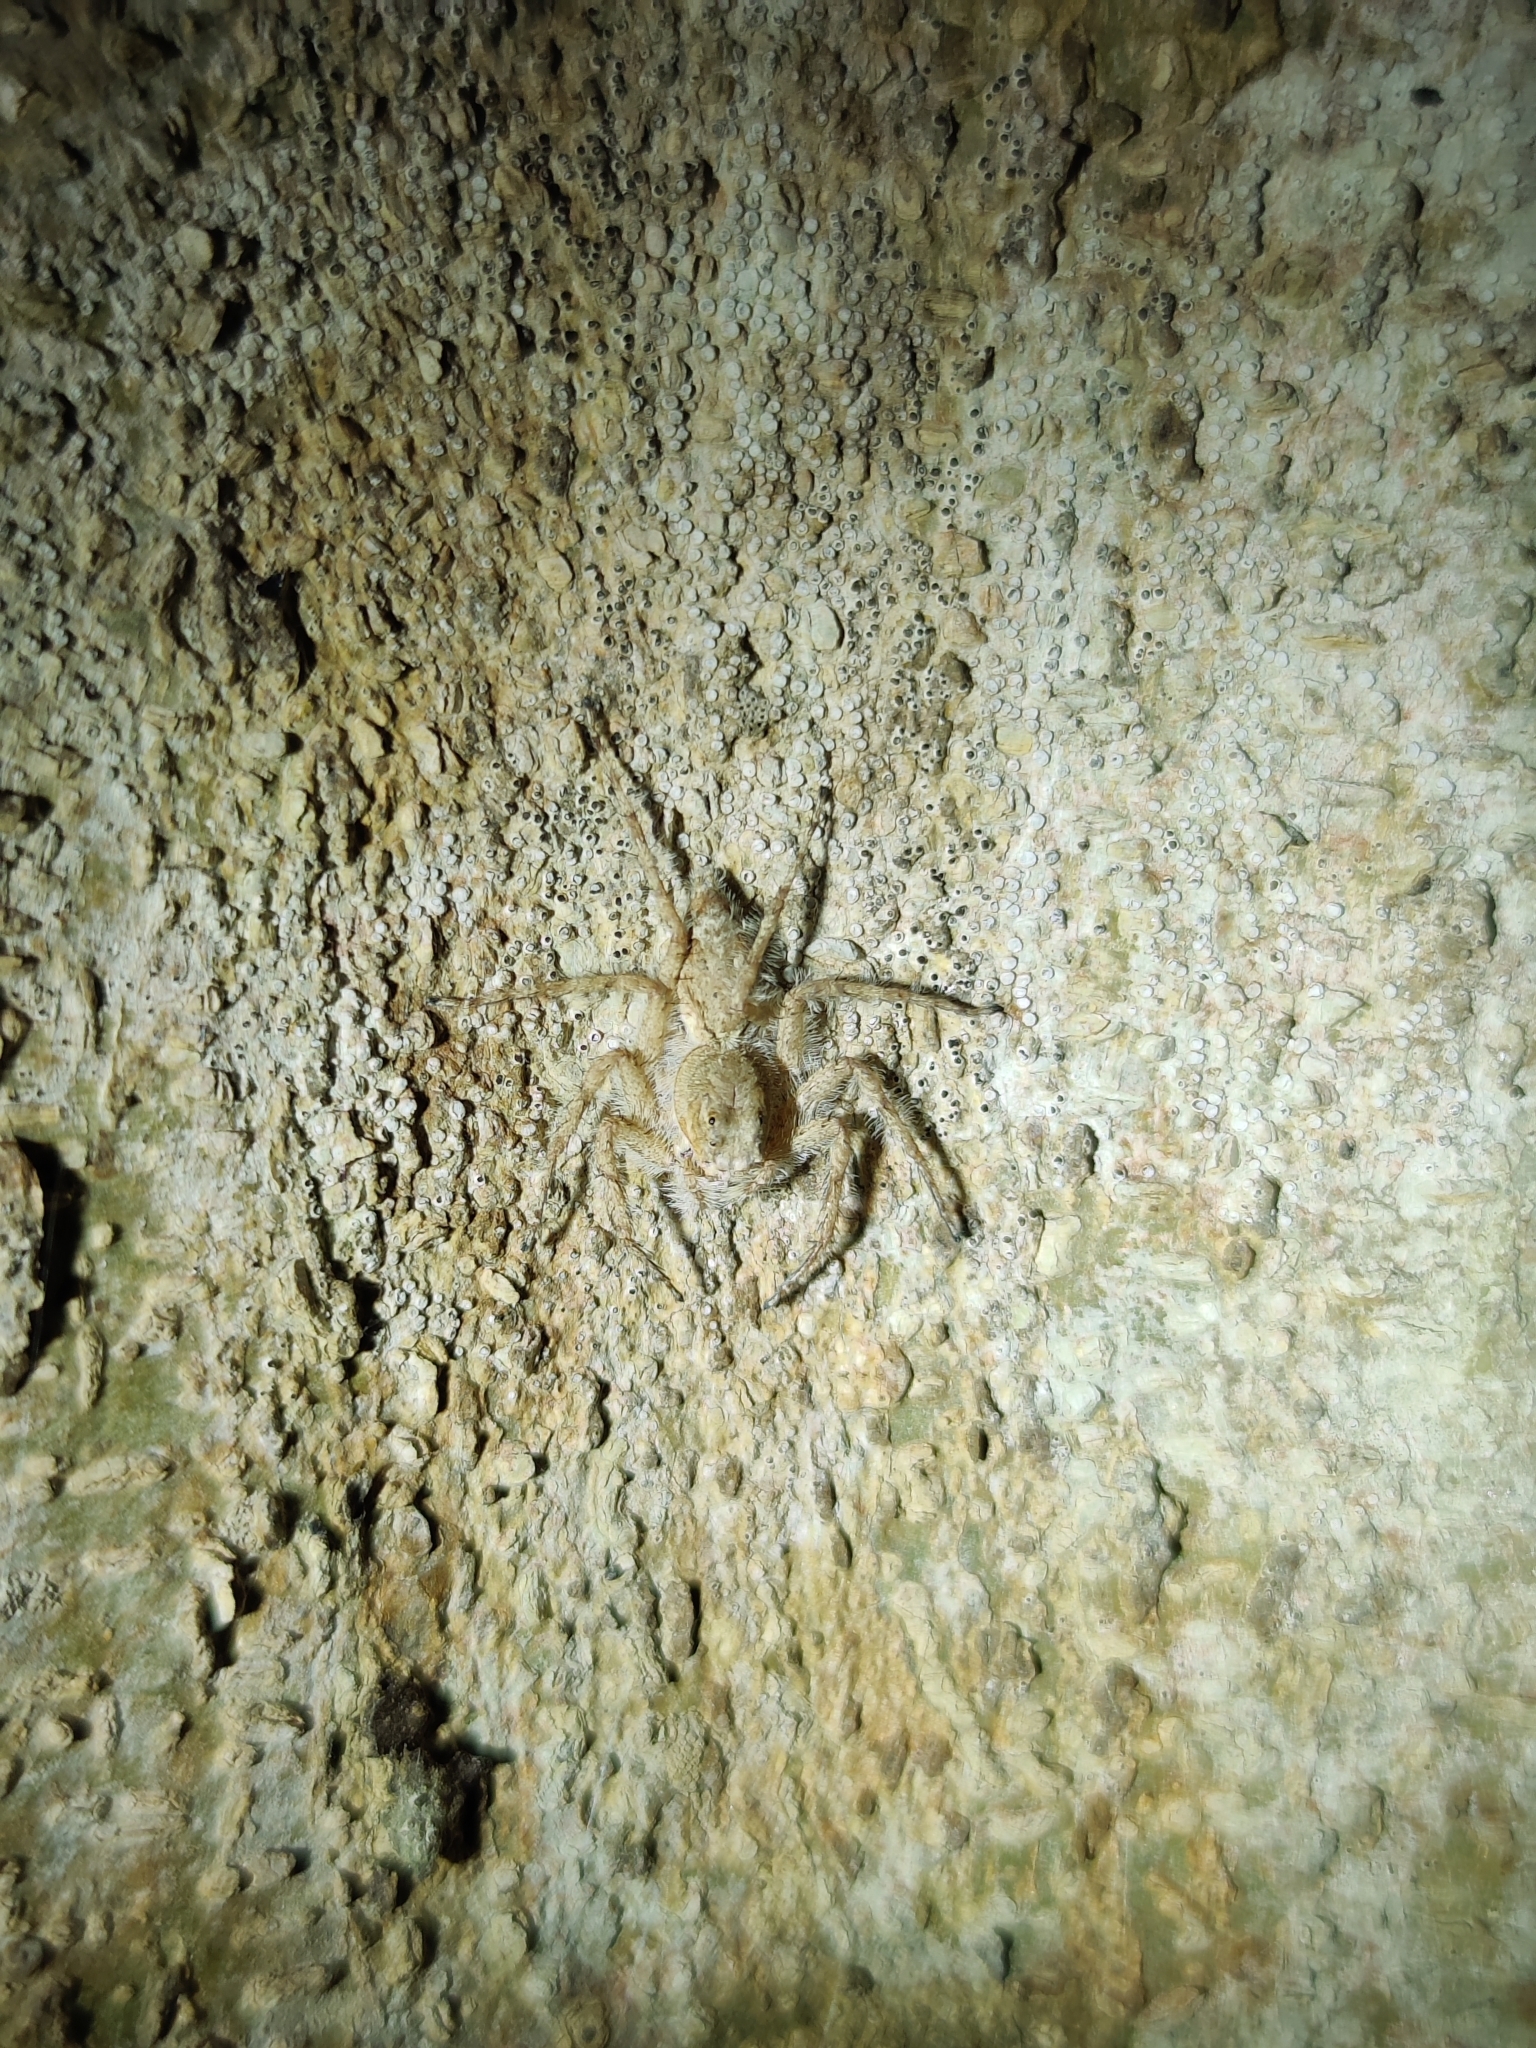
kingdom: Animalia
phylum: Arthropoda
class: Arachnida
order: Araneae
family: Salticidae
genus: Phaeacius
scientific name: Phaeacius malayensis
